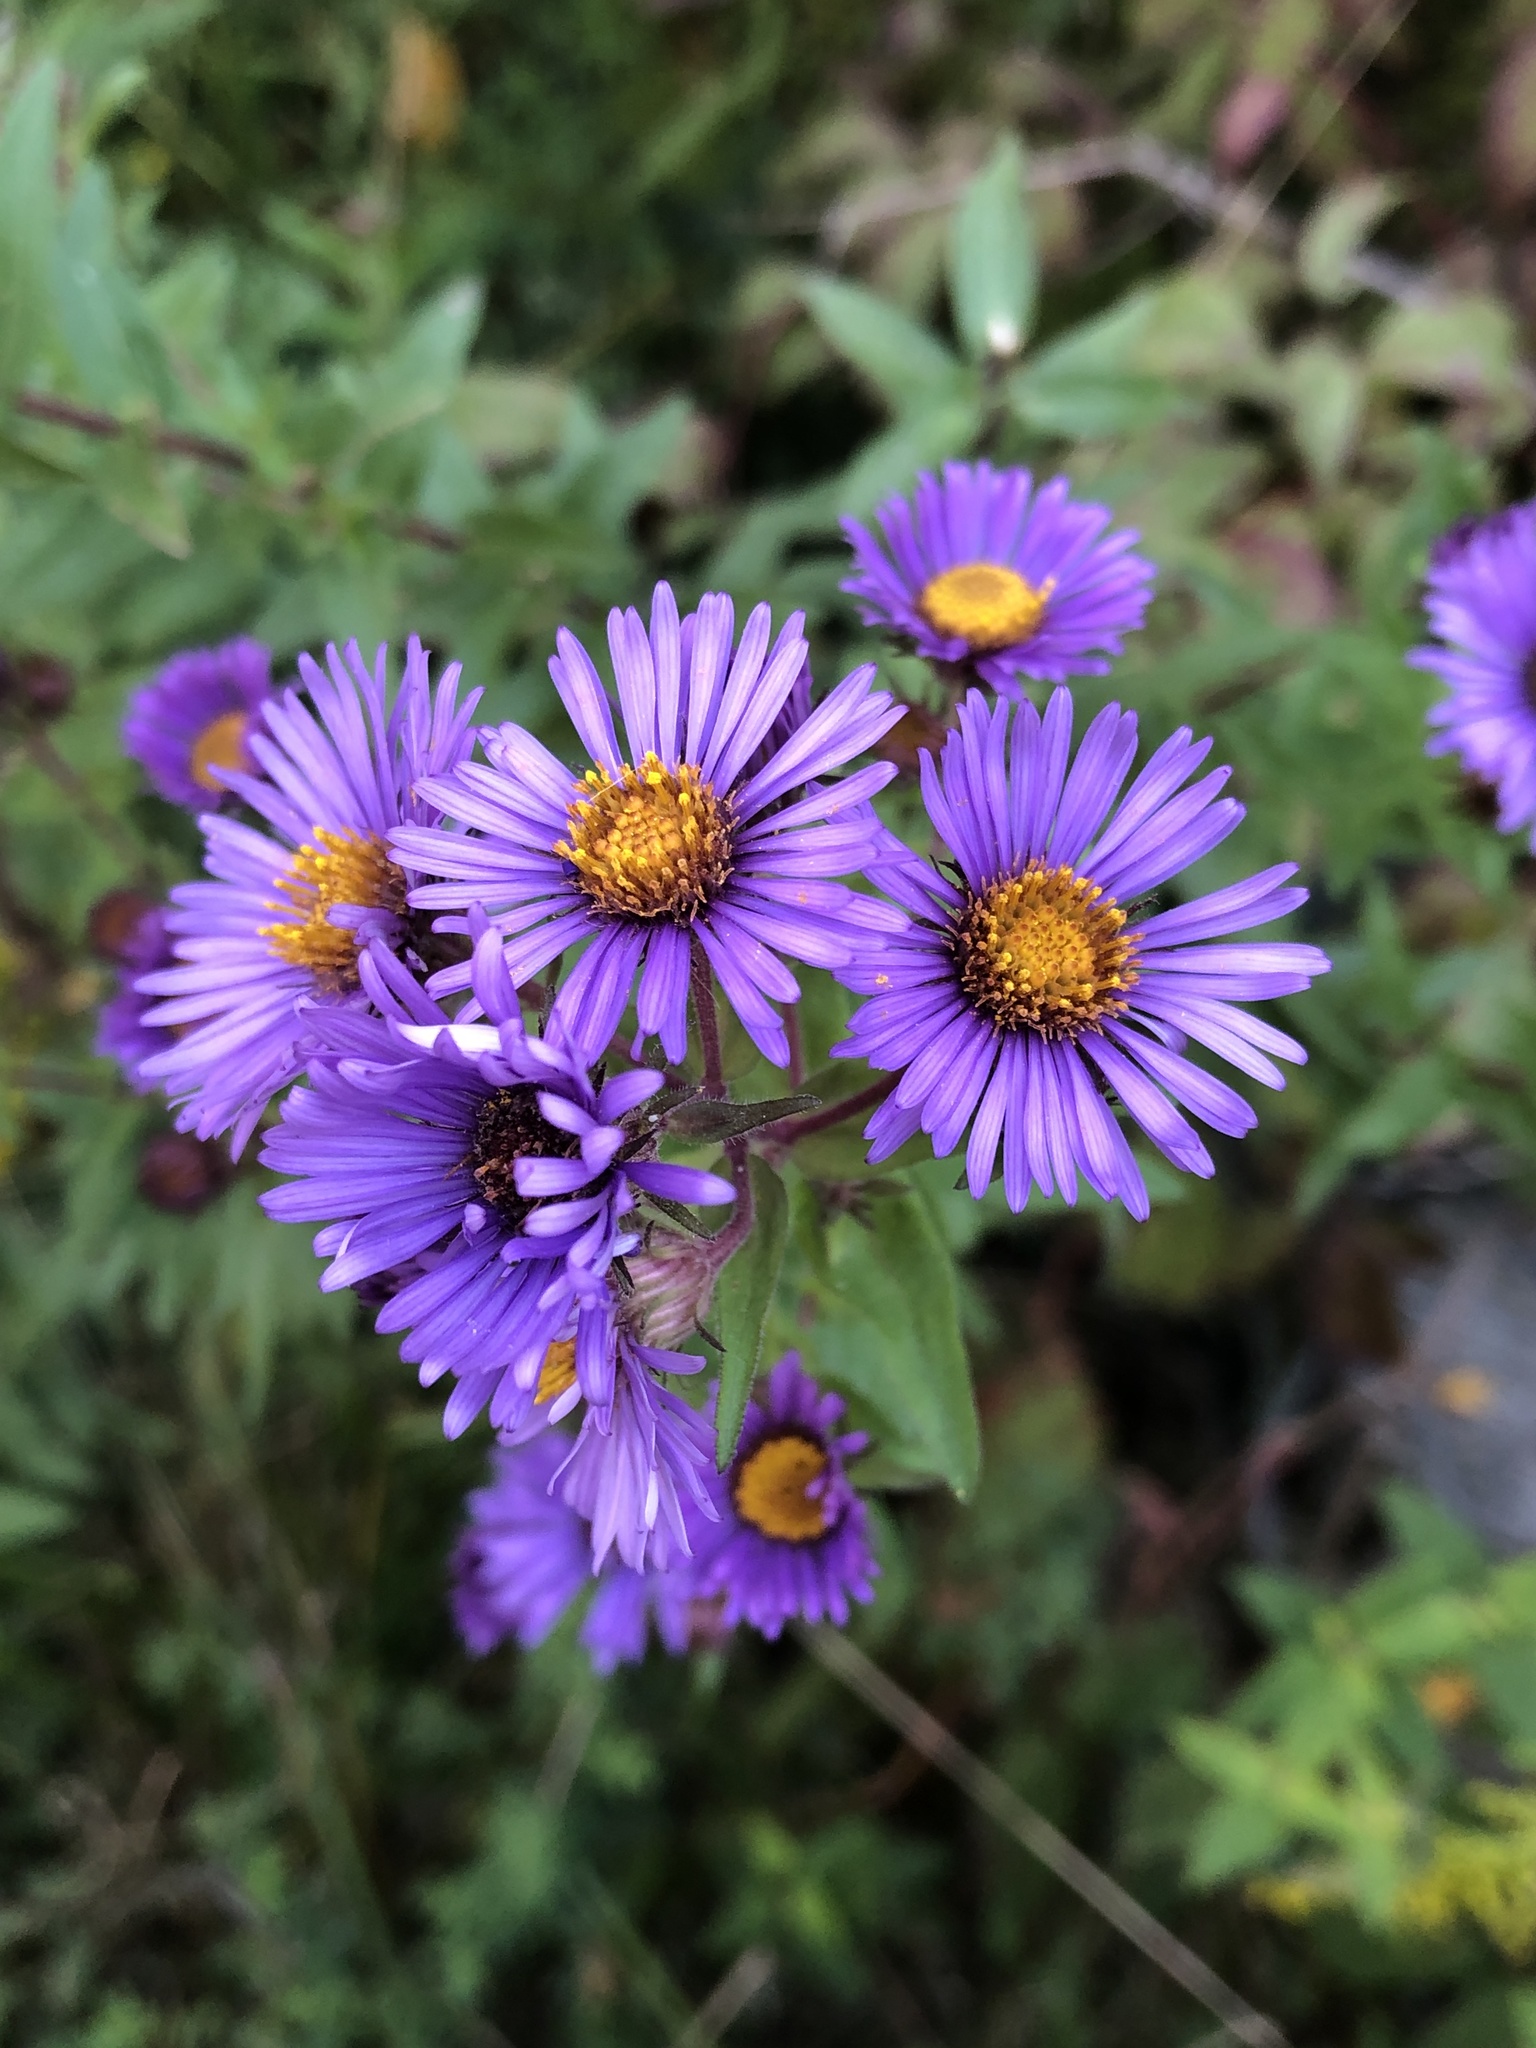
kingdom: Plantae
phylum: Tracheophyta
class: Magnoliopsida
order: Asterales
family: Asteraceae
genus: Symphyotrichum
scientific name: Symphyotrichum novae-angliae
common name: Michaelmas daisy
